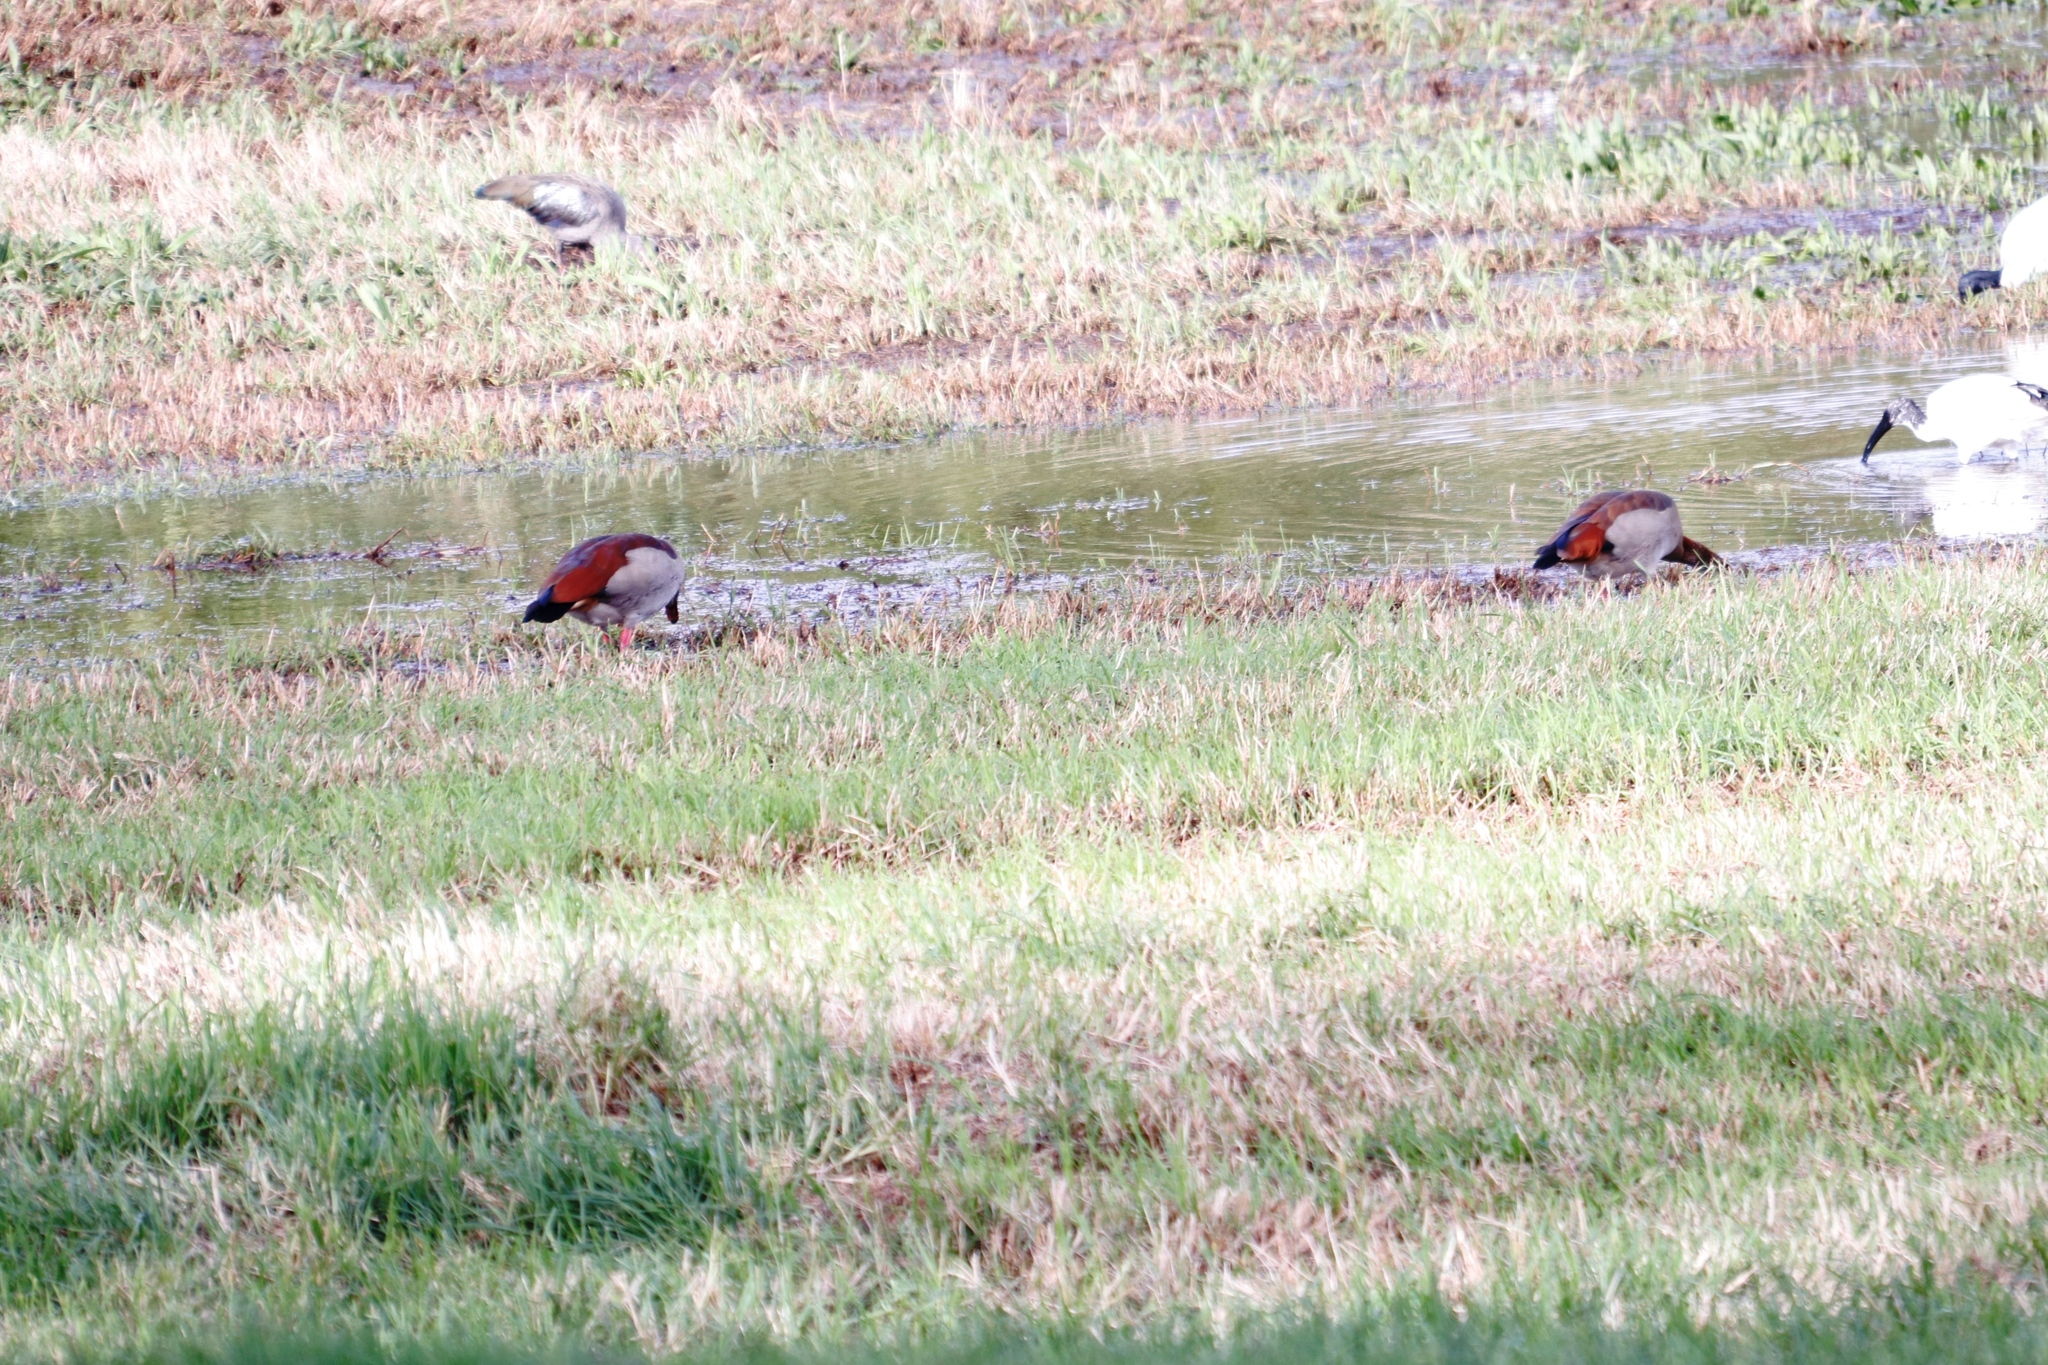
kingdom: Animalia
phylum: Chordata
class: Aves
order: Anseriformes
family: Anatidae
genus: Alopochen
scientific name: Alopochen aegyptiaca
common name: Egyptian goose
